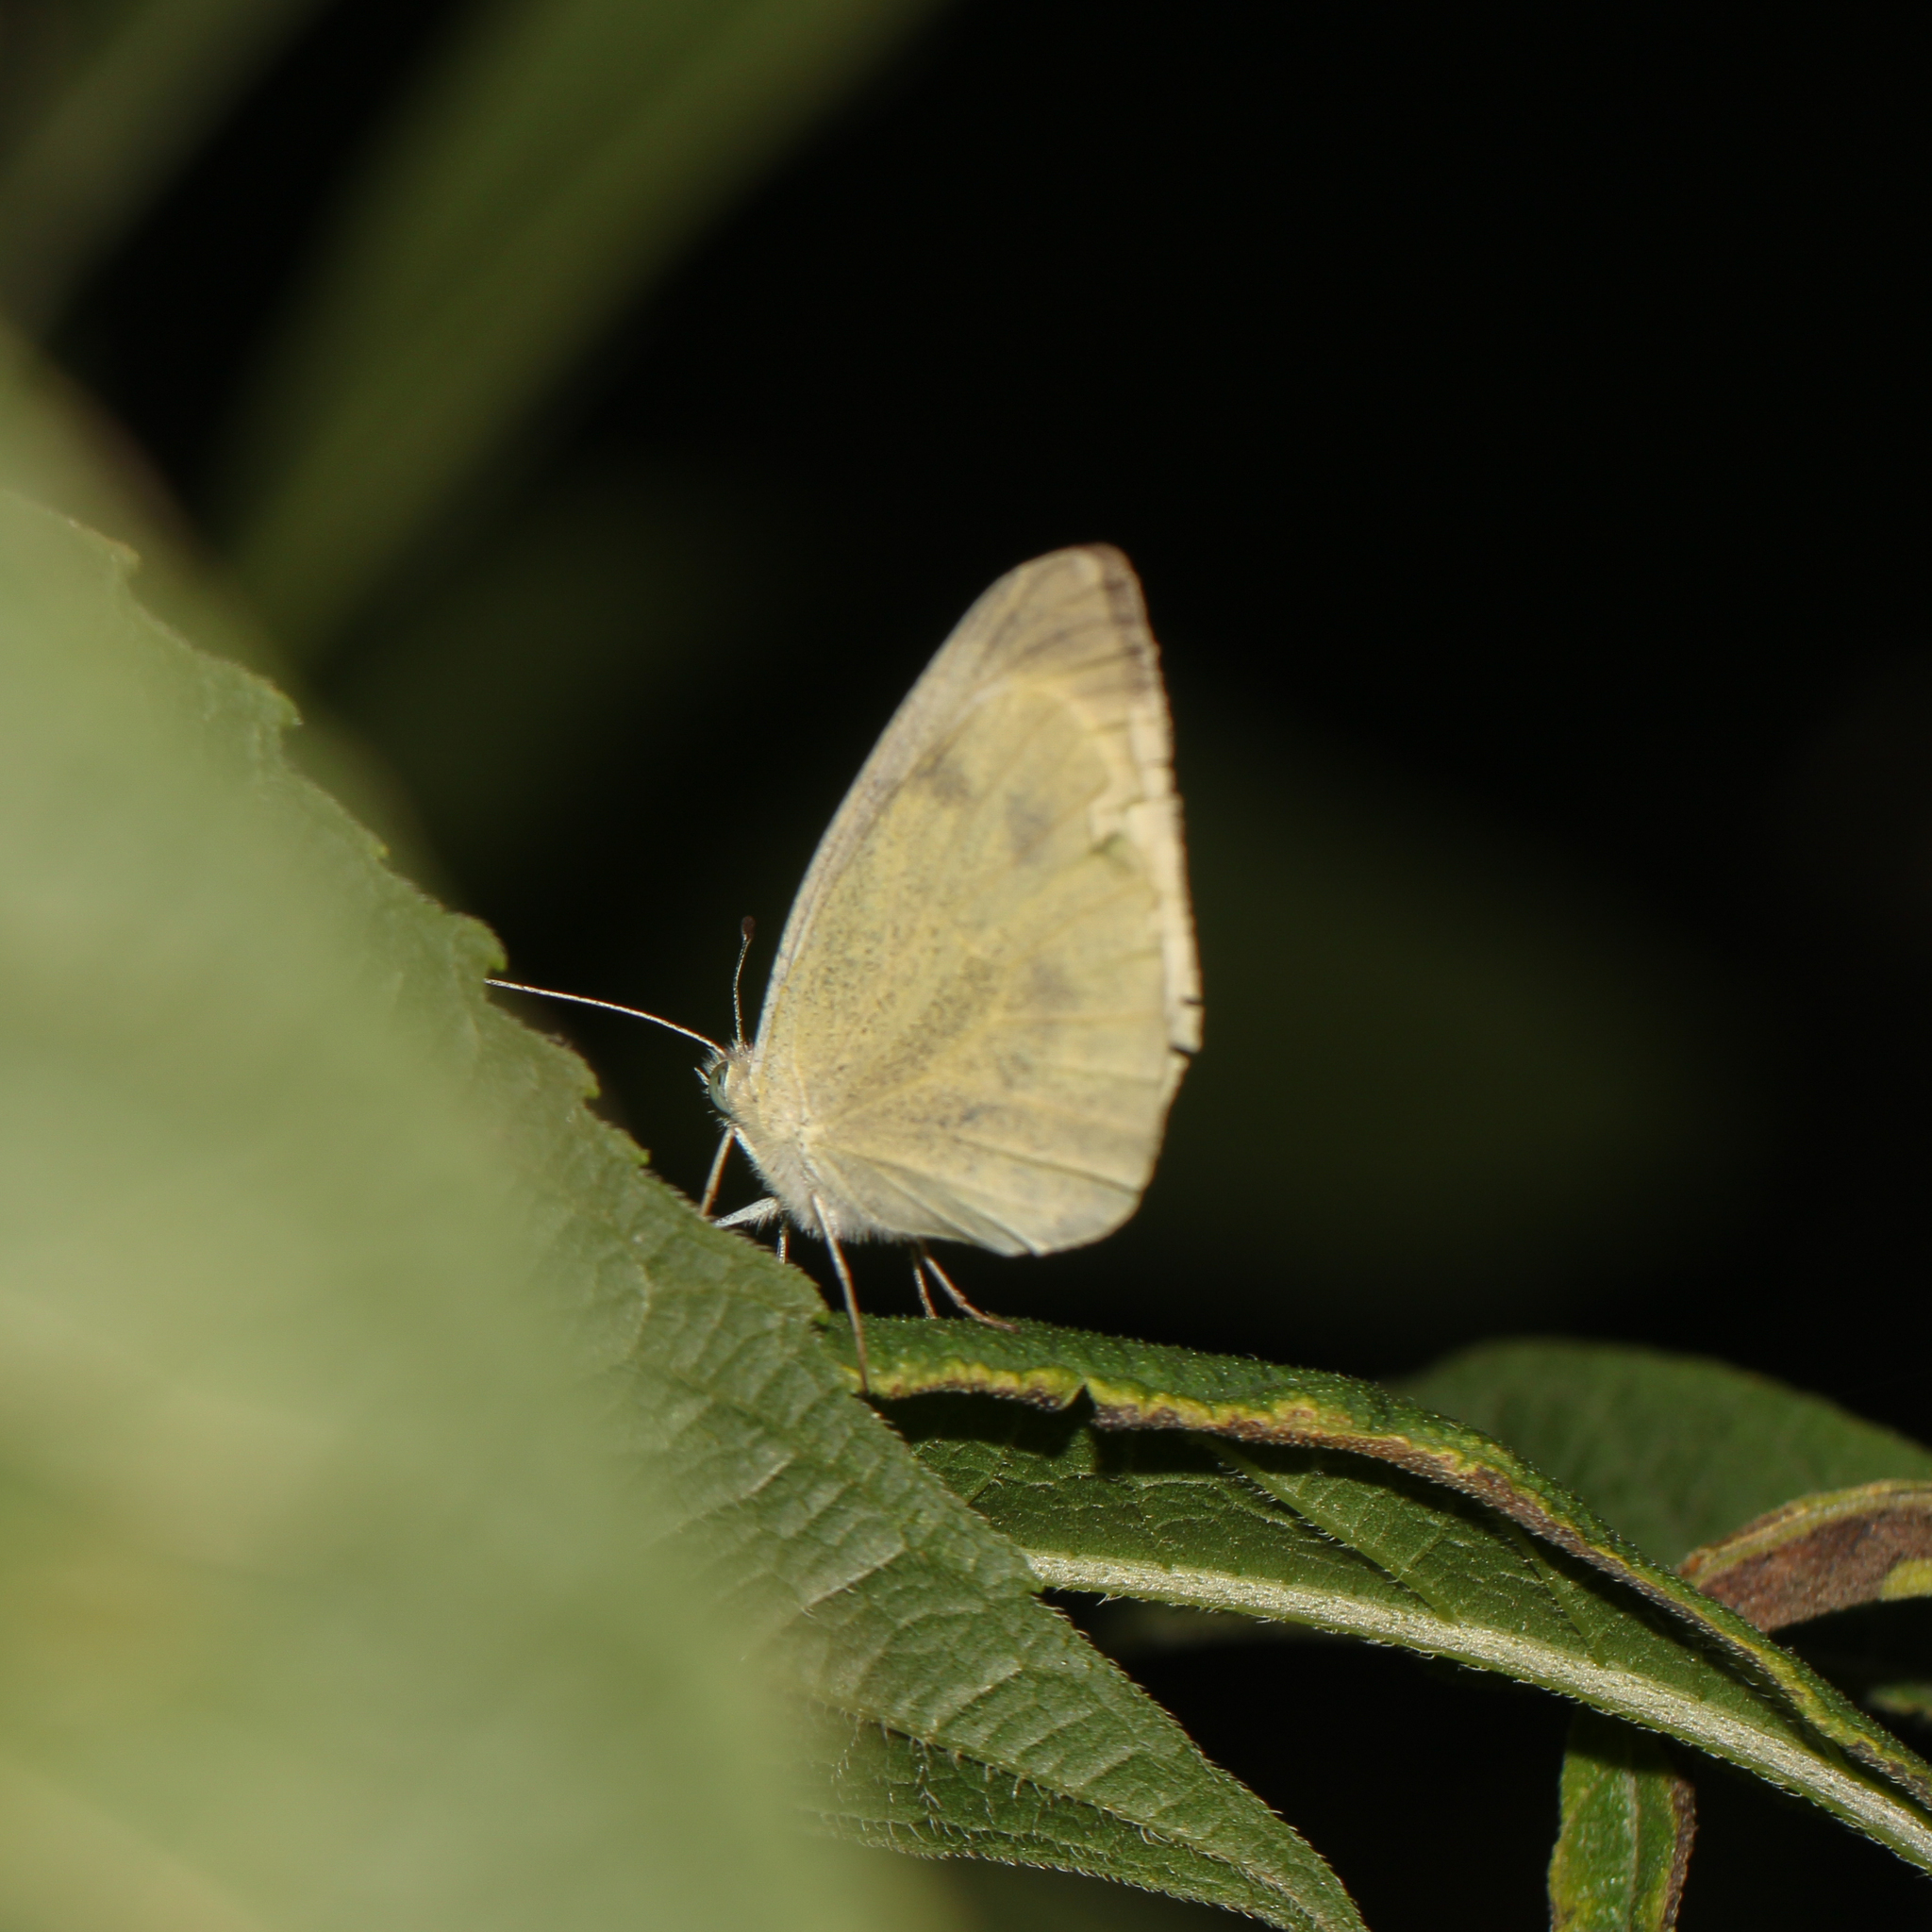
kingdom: Animalia
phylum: Arthropoda
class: Insecta
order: Lepidoptera
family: Pieridae
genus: Pieris
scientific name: Pieris rapae
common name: Small white
